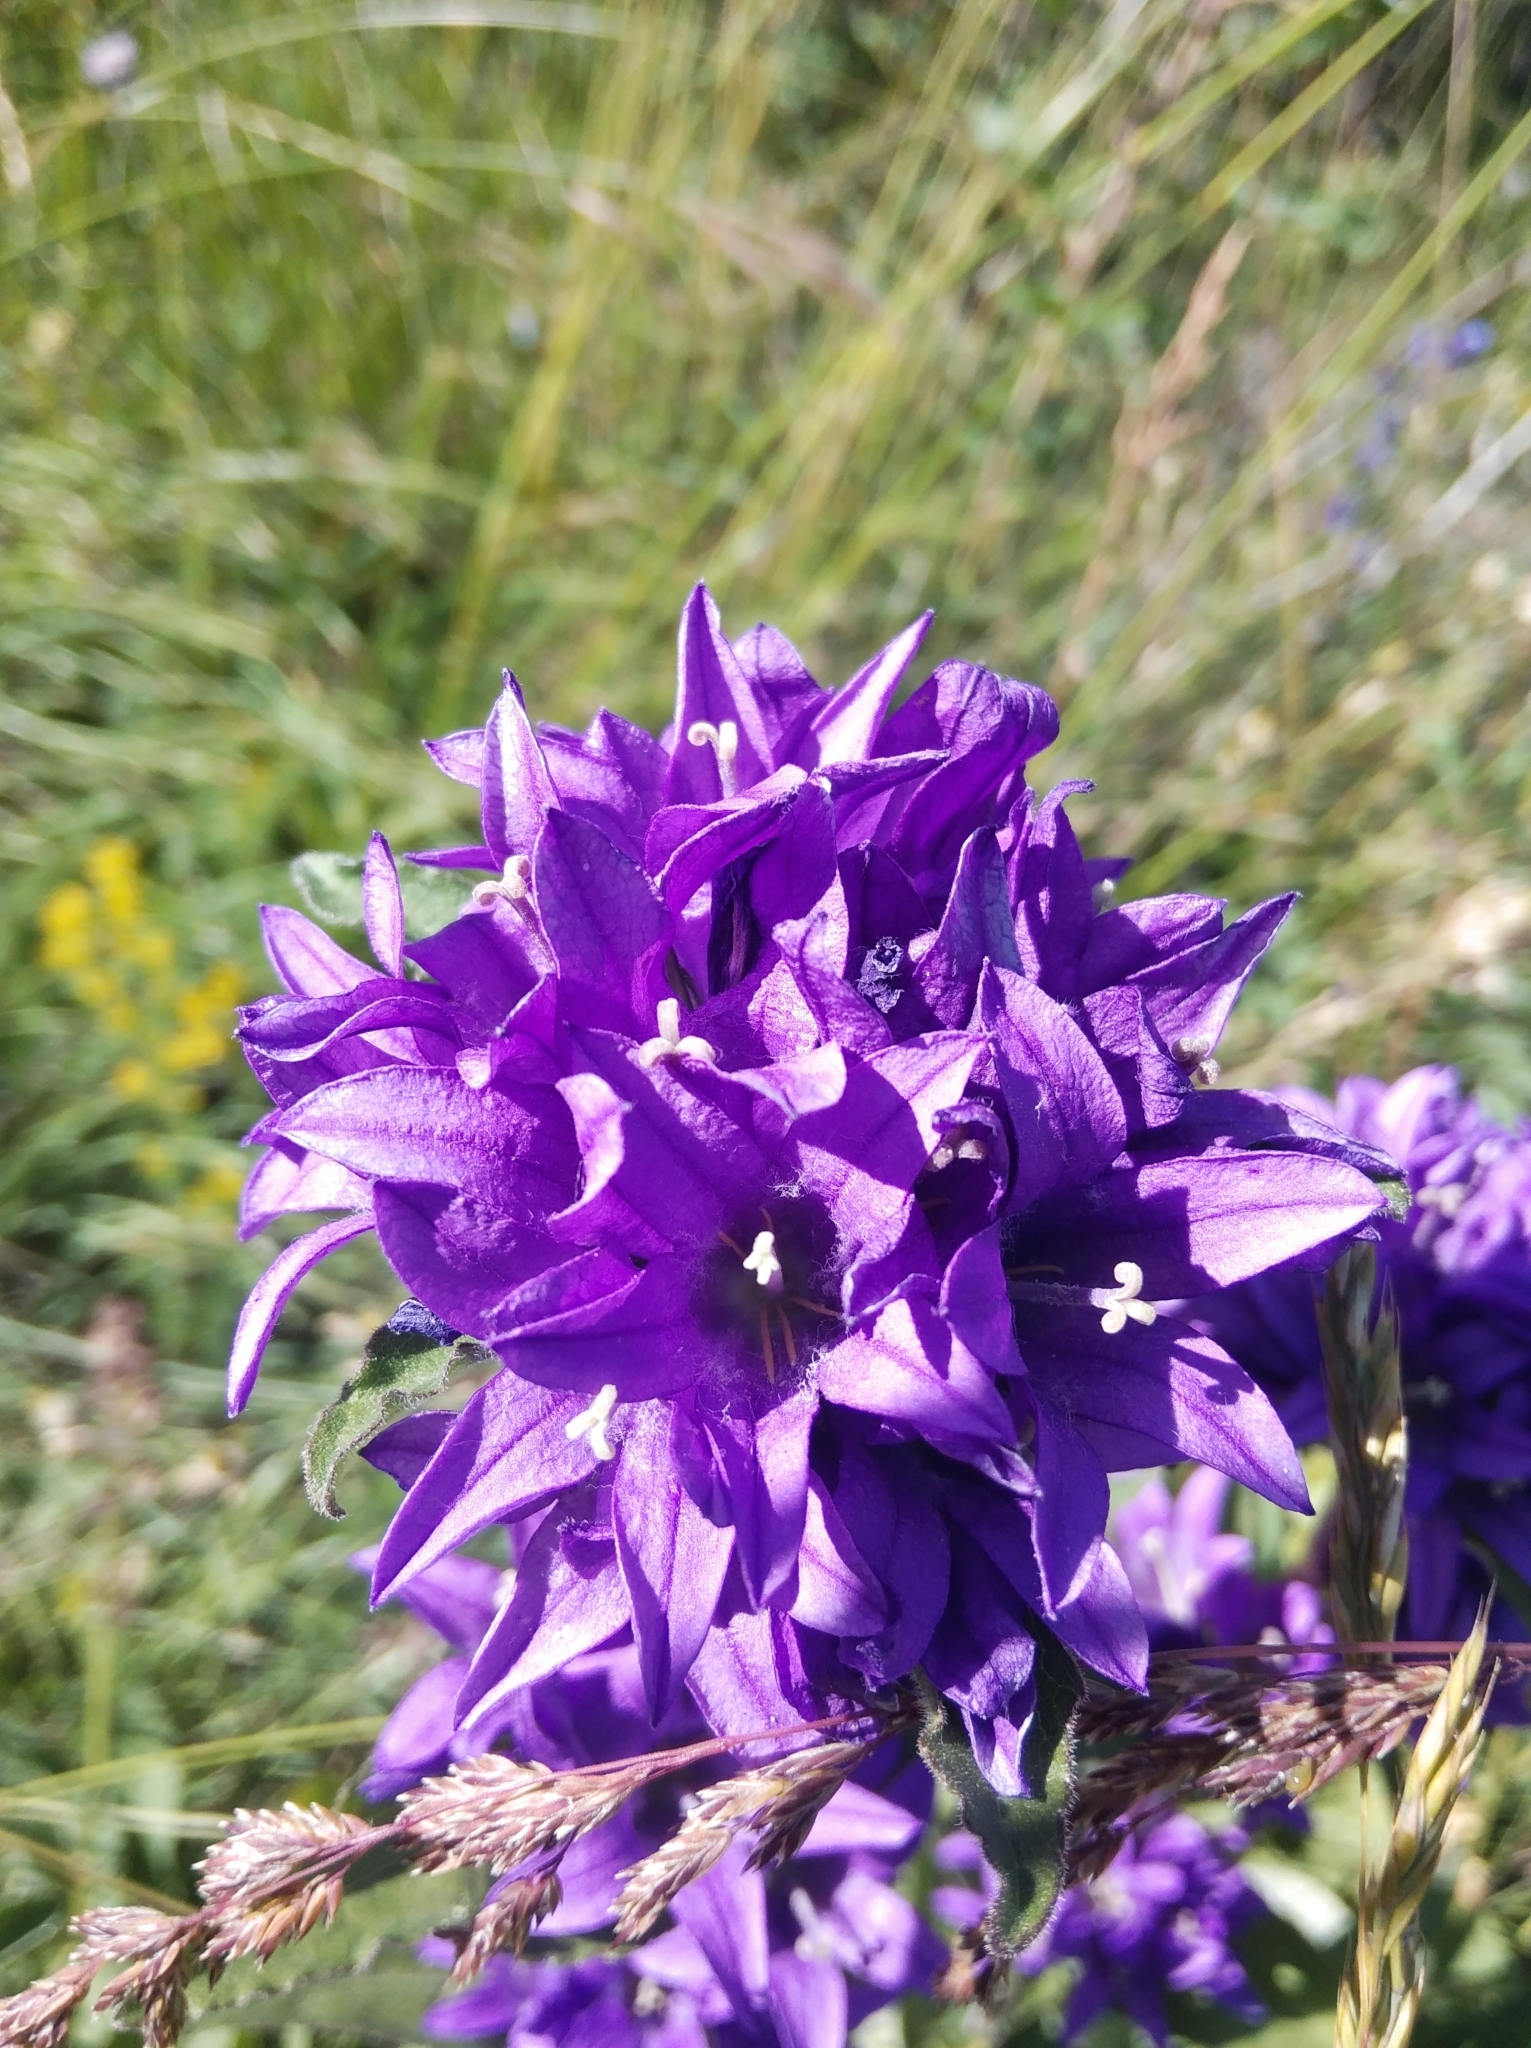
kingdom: Plantae
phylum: Tracheophyta
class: Magnoliopsida
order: Asterales
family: Campanulaceae
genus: Campanula
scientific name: Campanula glomerata
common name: Clustered bellflower
